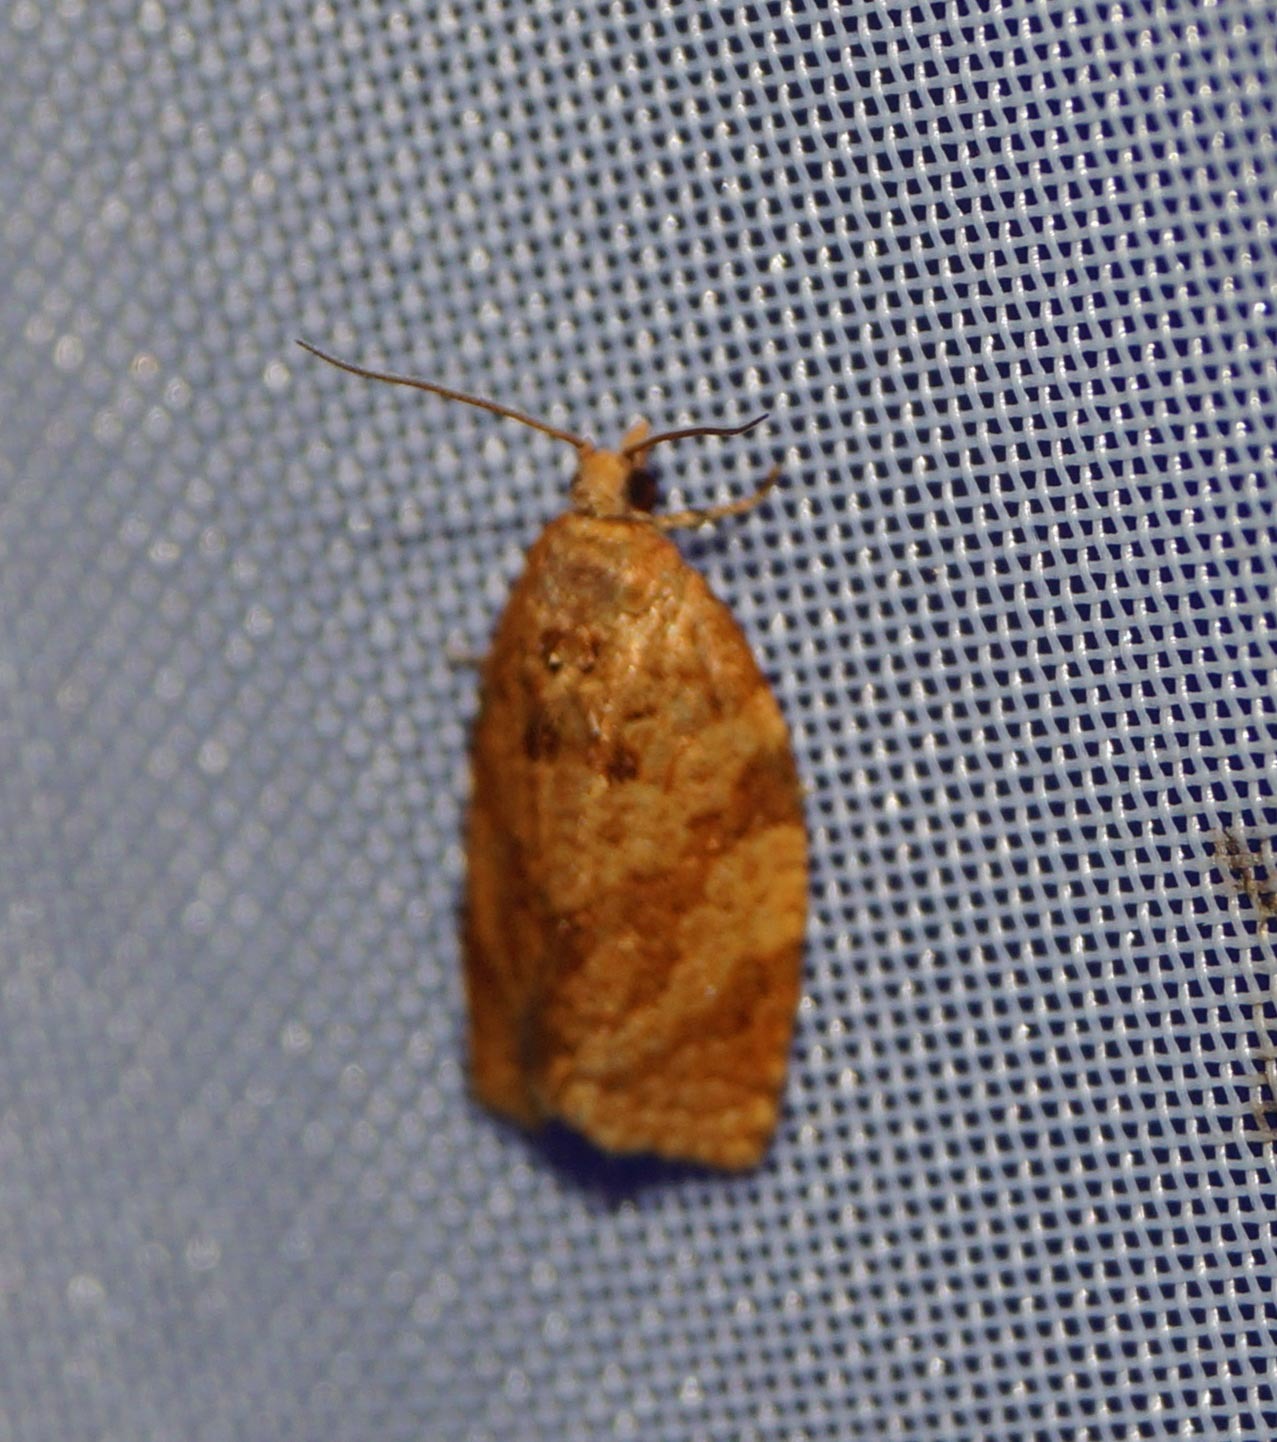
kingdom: Animalia
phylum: Arthropoda
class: Insecta
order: Lepidoptera
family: Tortricidae
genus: Adoxophyes
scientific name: Adoxophyes orana
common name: Summer fruit tortrix
